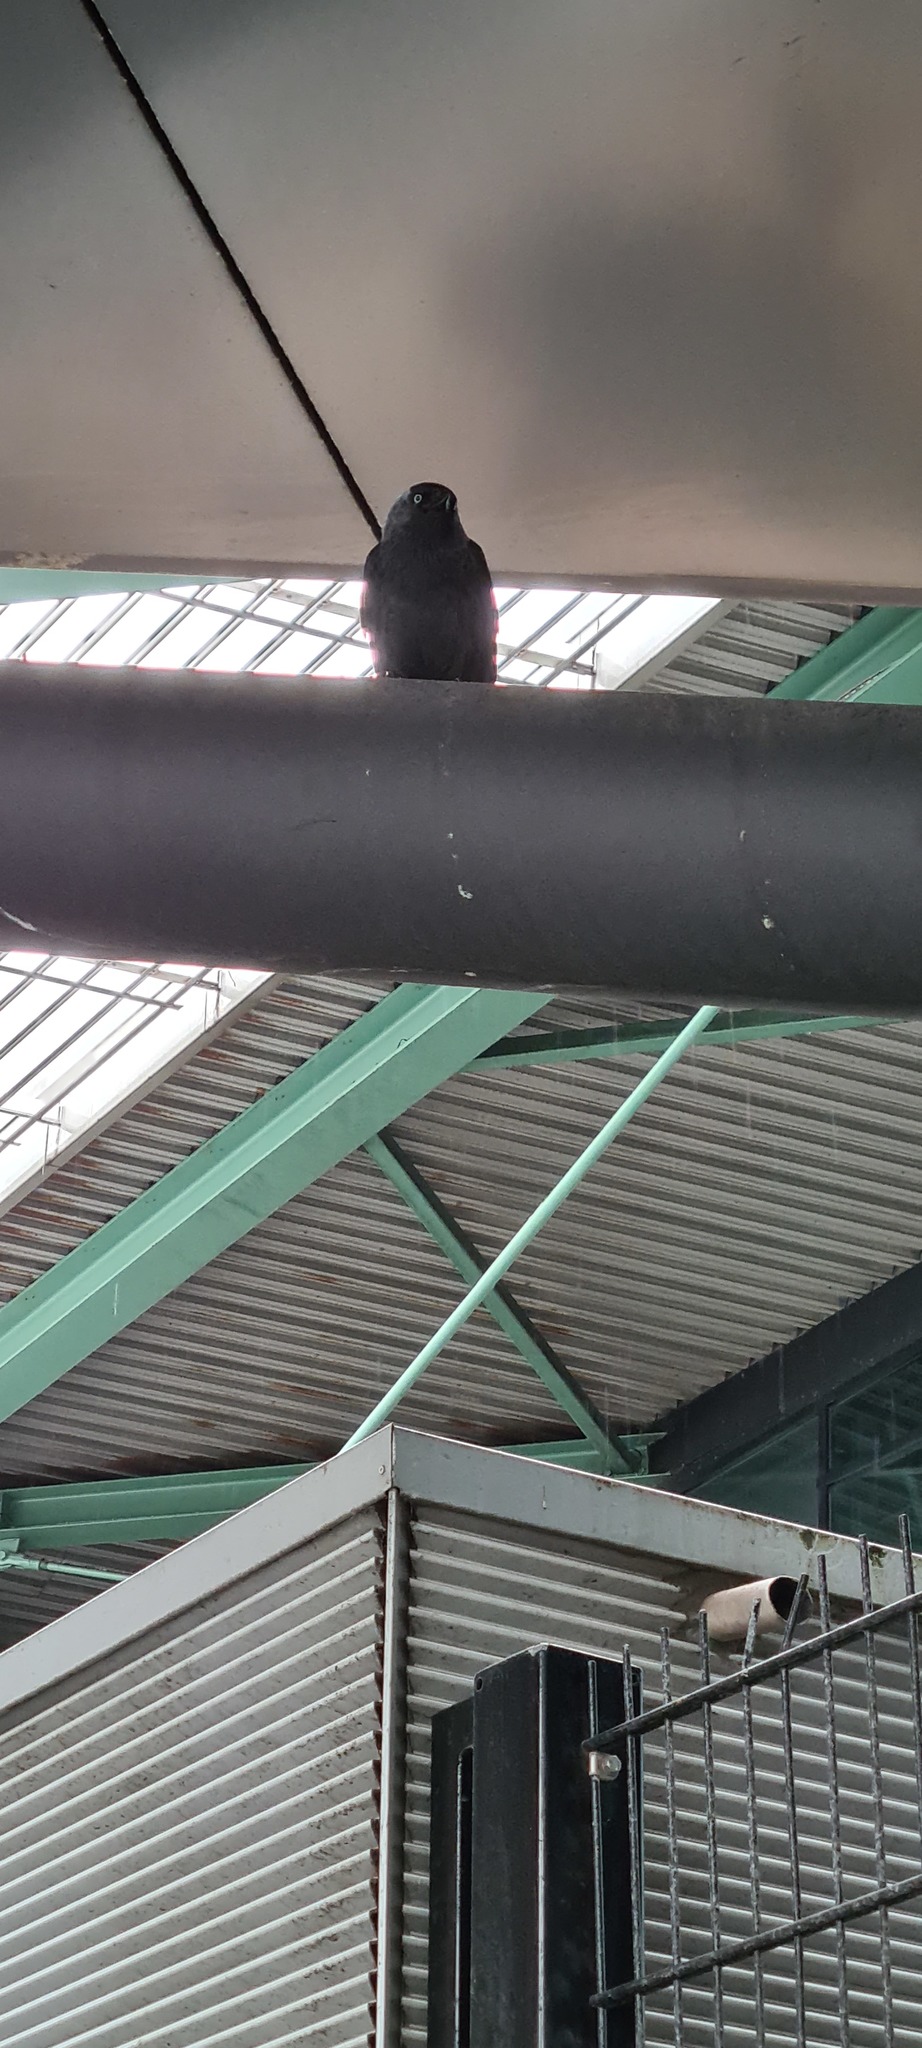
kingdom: Animalia
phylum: Chordata
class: Aves
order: Passeriformes
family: Corvidae
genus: Coloeus
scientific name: Coloeus monedula
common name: Western jackdaw
